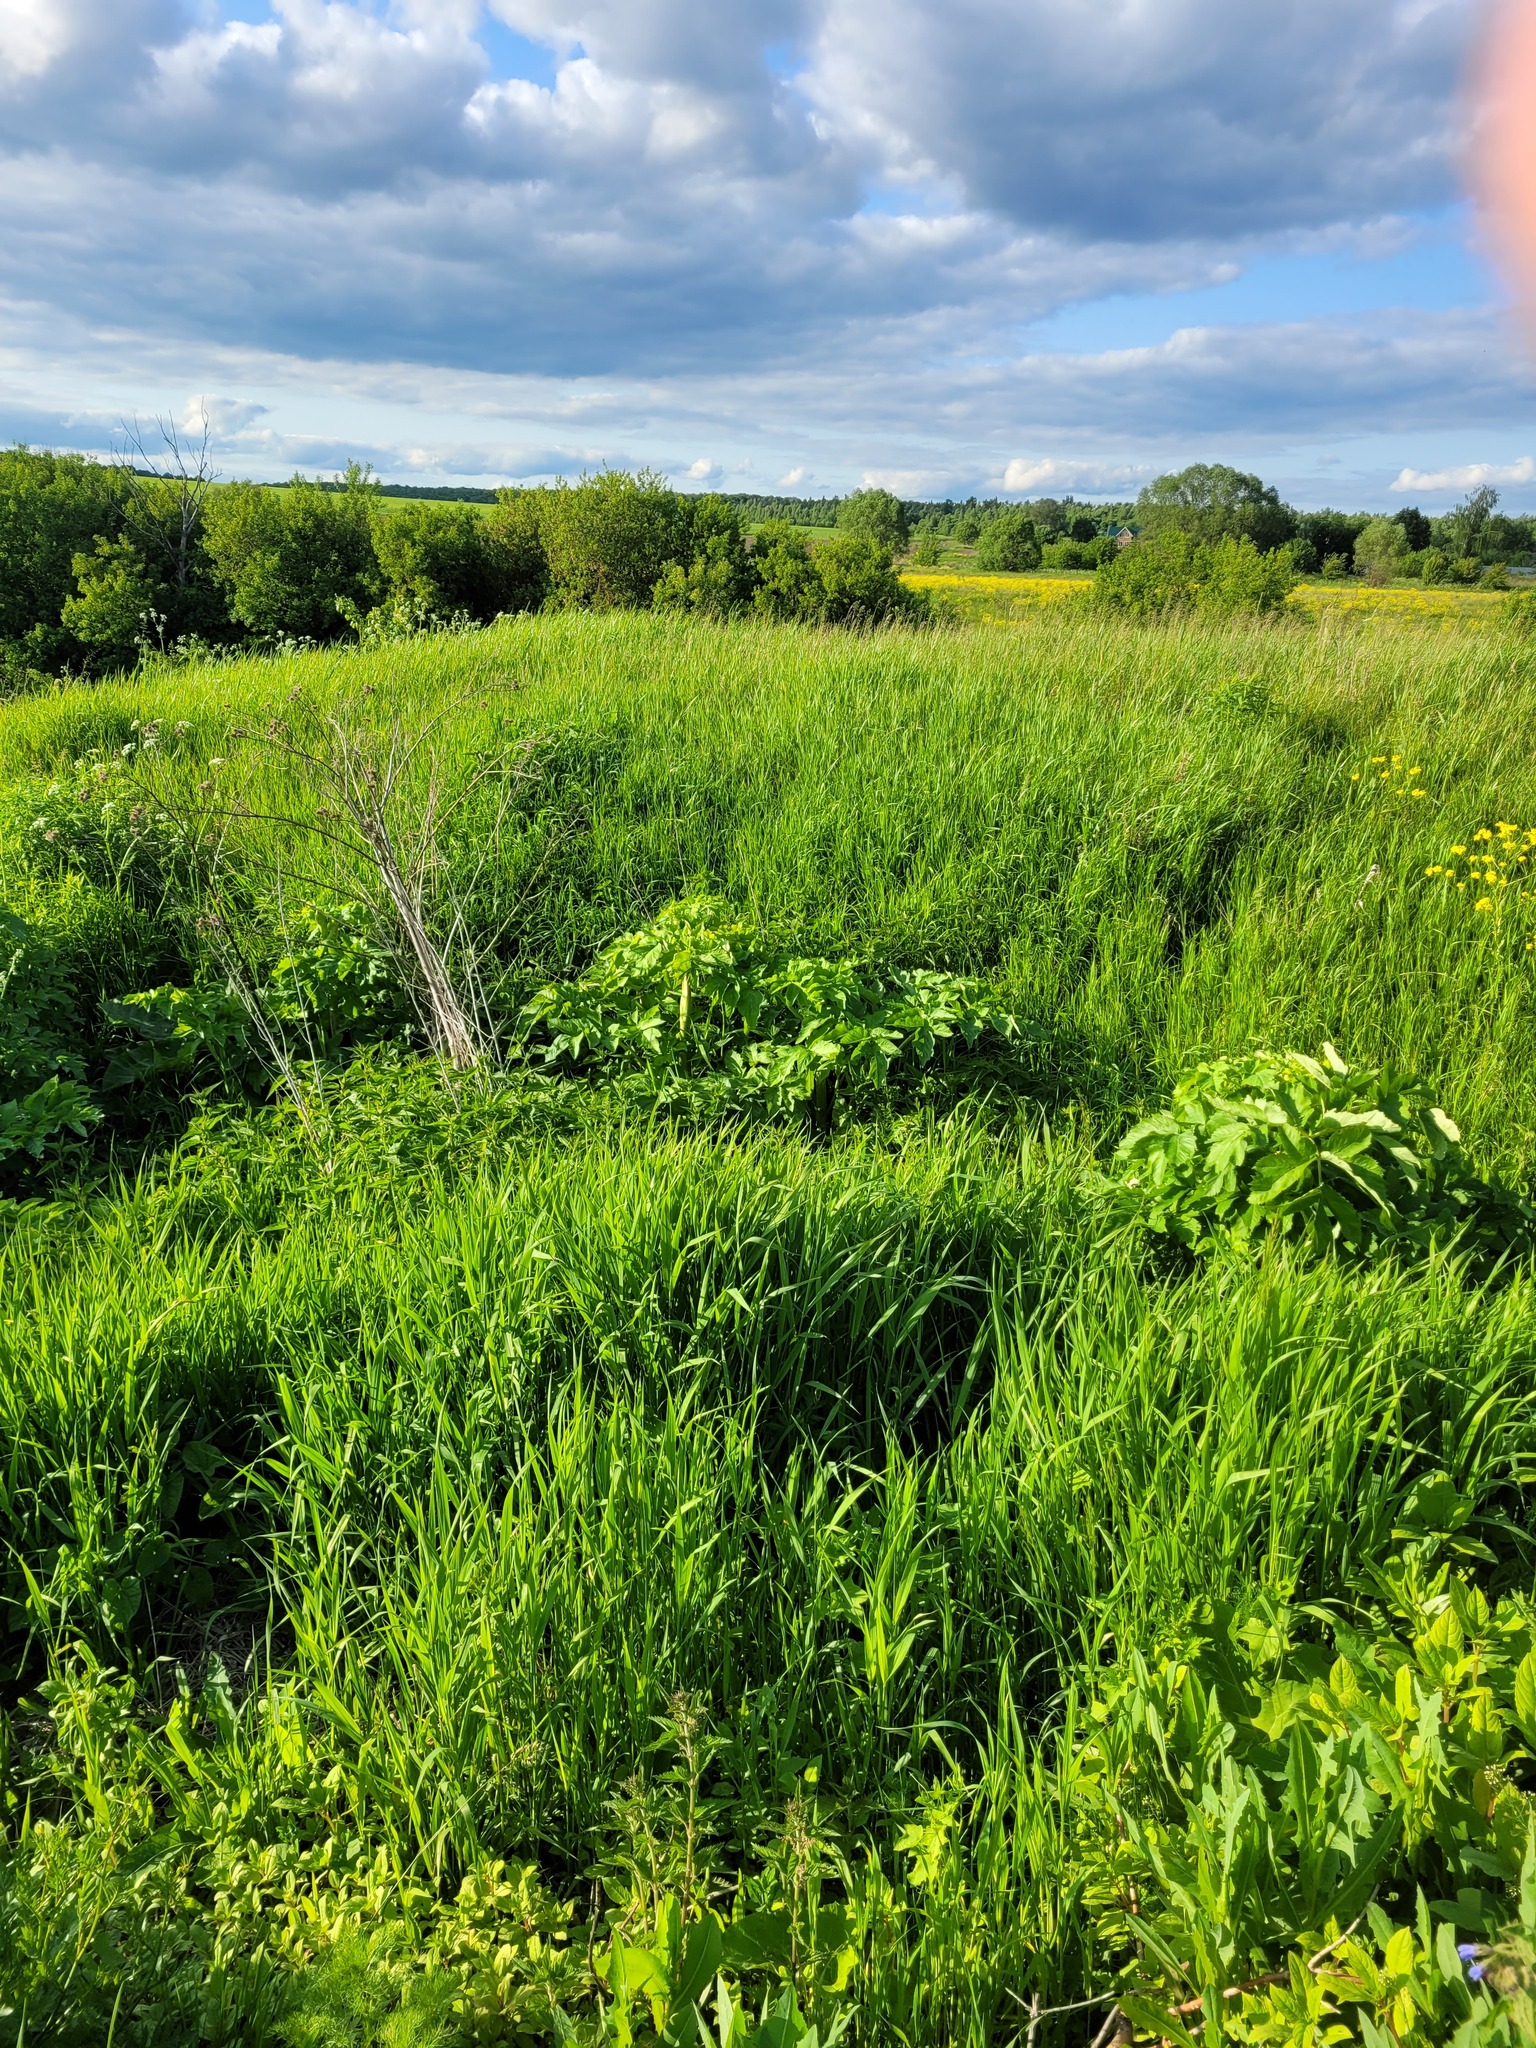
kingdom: Plantae
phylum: Tracheophyta
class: Magnoliopsida
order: Apiales
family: Apiaceae
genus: Angelica
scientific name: Angelica archangelica
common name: Garden angelica
